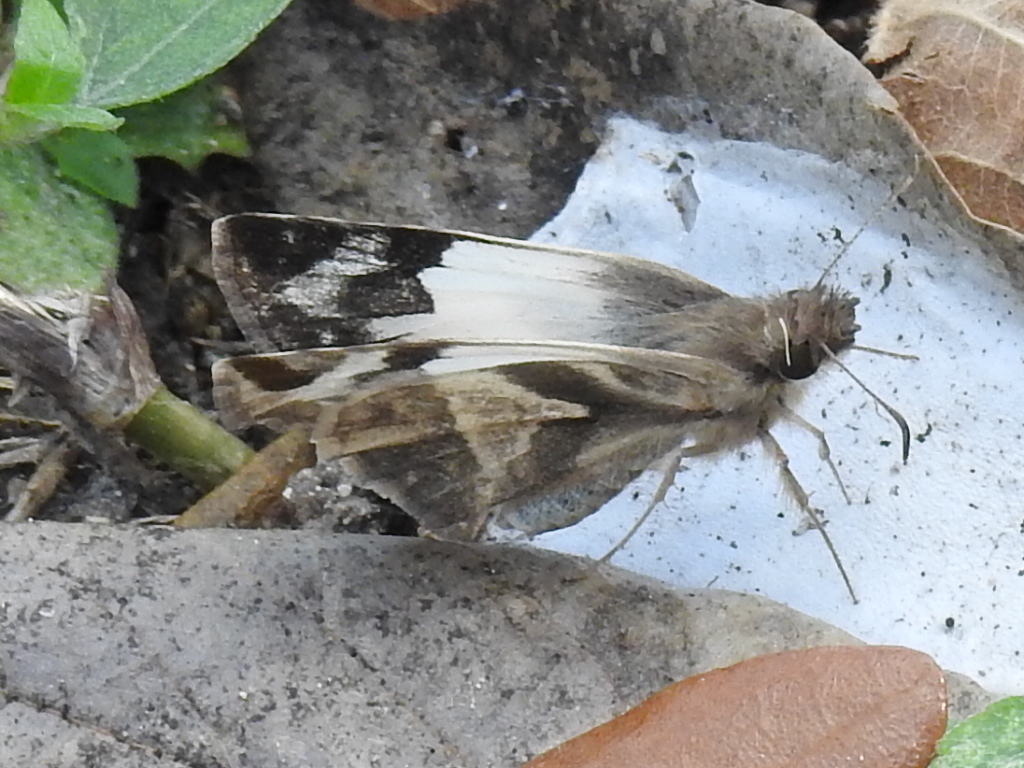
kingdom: Animalia
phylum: Arthropoda
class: Insecta
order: Lepidoptera
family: Hesperiidae
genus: Heliopetes
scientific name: Heliopetes laviana
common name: Laviana white-skipper
